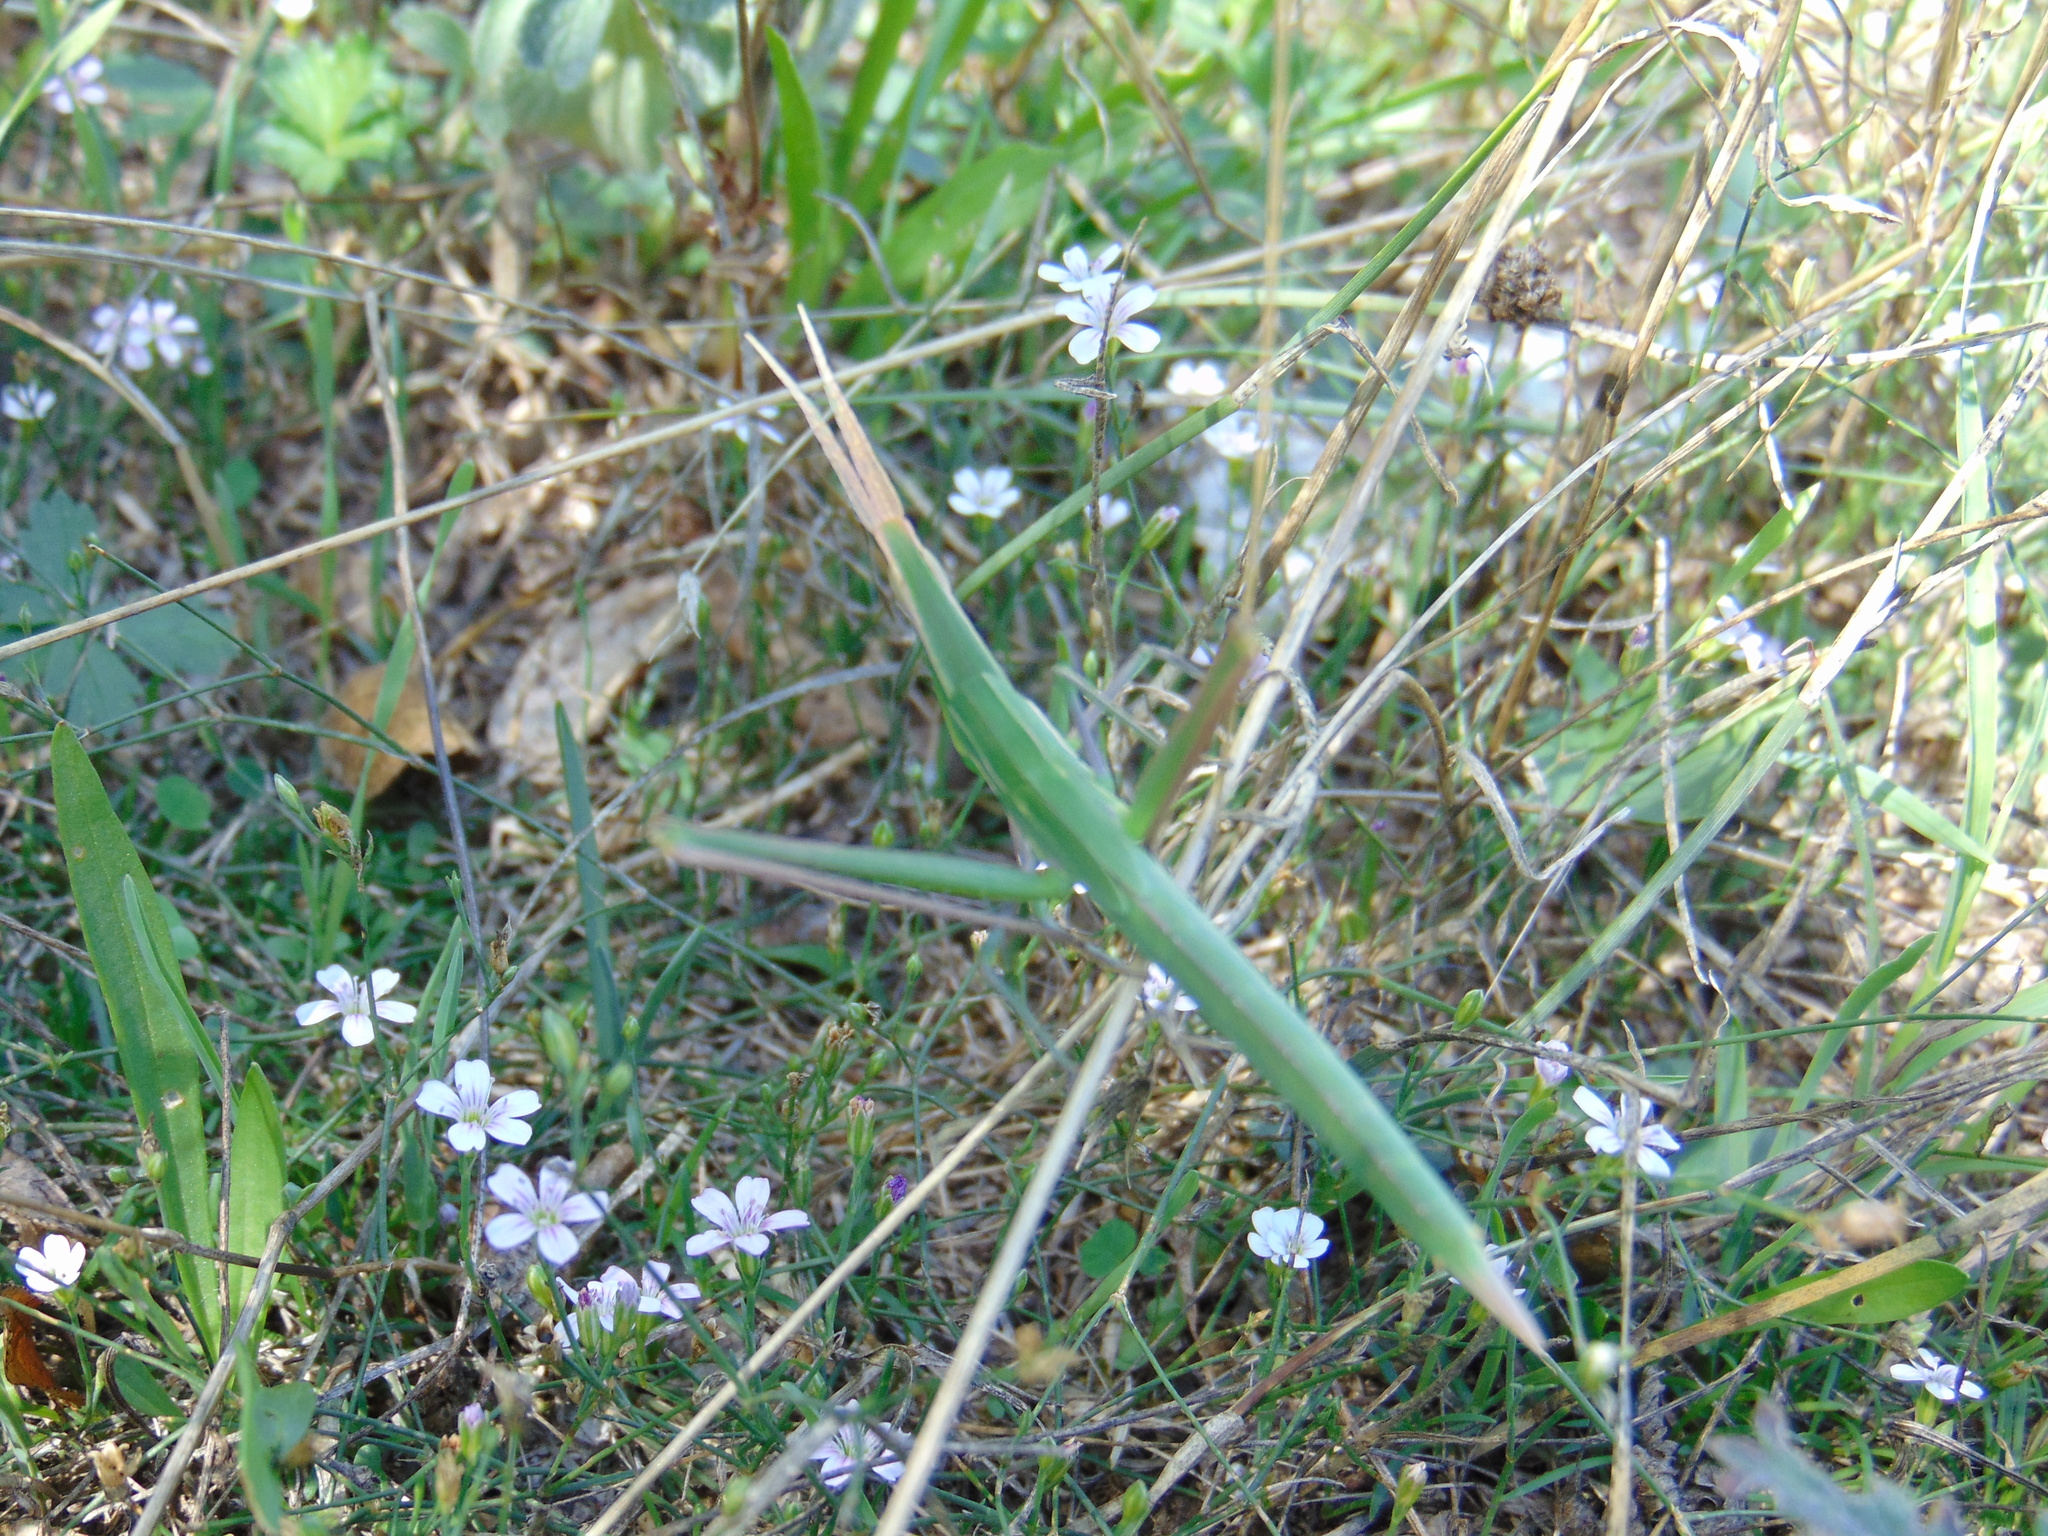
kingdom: Animalia
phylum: Arthropoda
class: Insecta
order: Orthoptera
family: Acrididae
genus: Acrida
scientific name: Acrida ungarica
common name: Common cone-headed grasshopper
